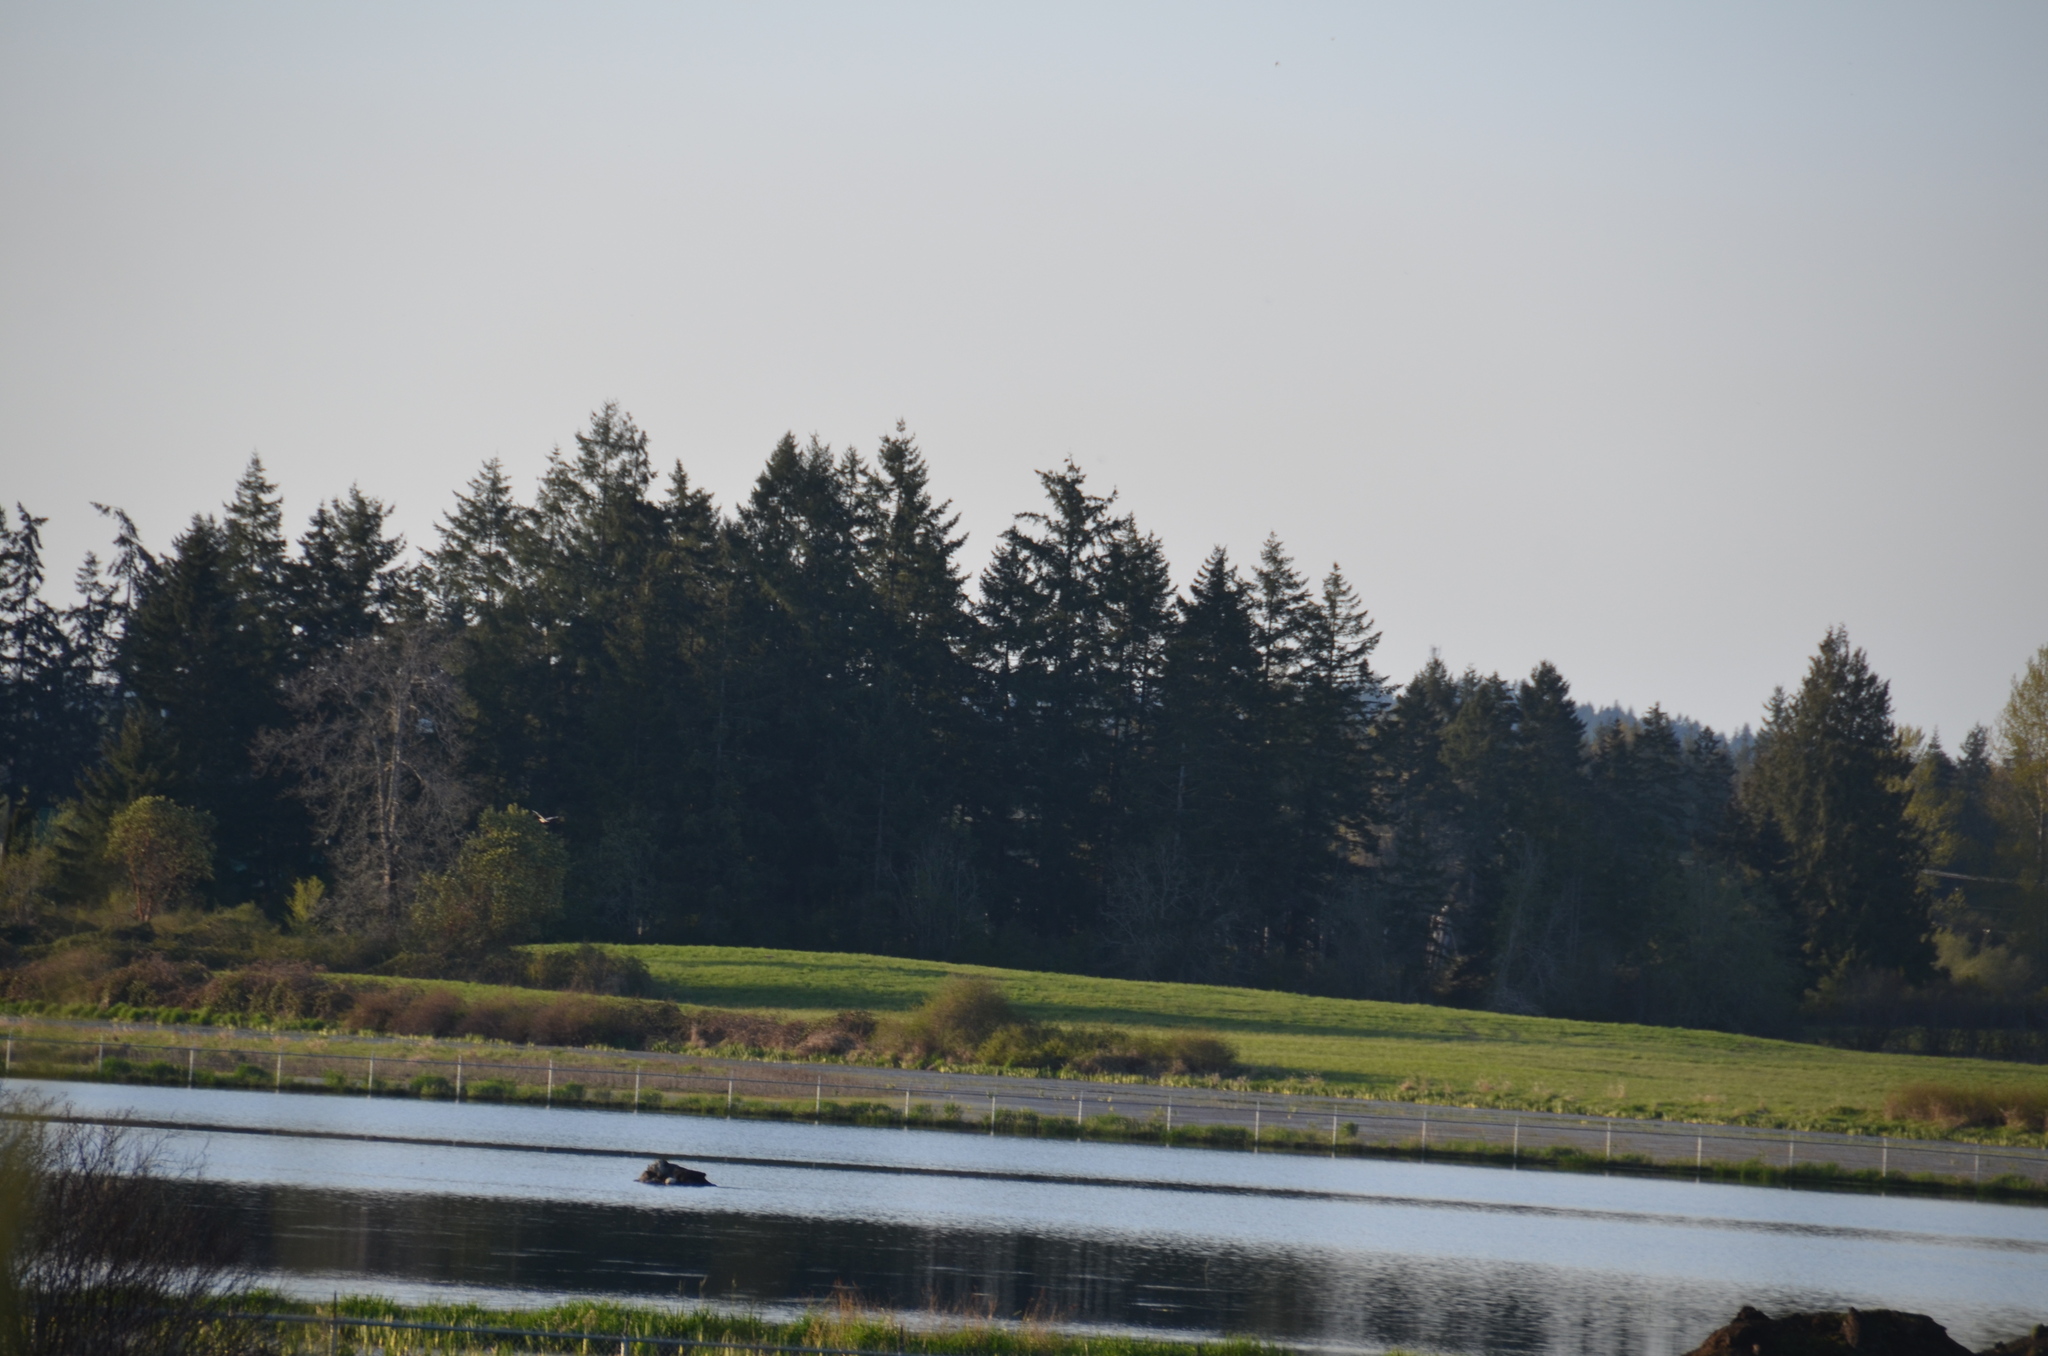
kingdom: Animalia
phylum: Chordata
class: Aves
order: Accipitriformes
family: Accipitridae
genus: Haliaeetus
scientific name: Haliaeetus leucocephalus
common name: Bald eagle
